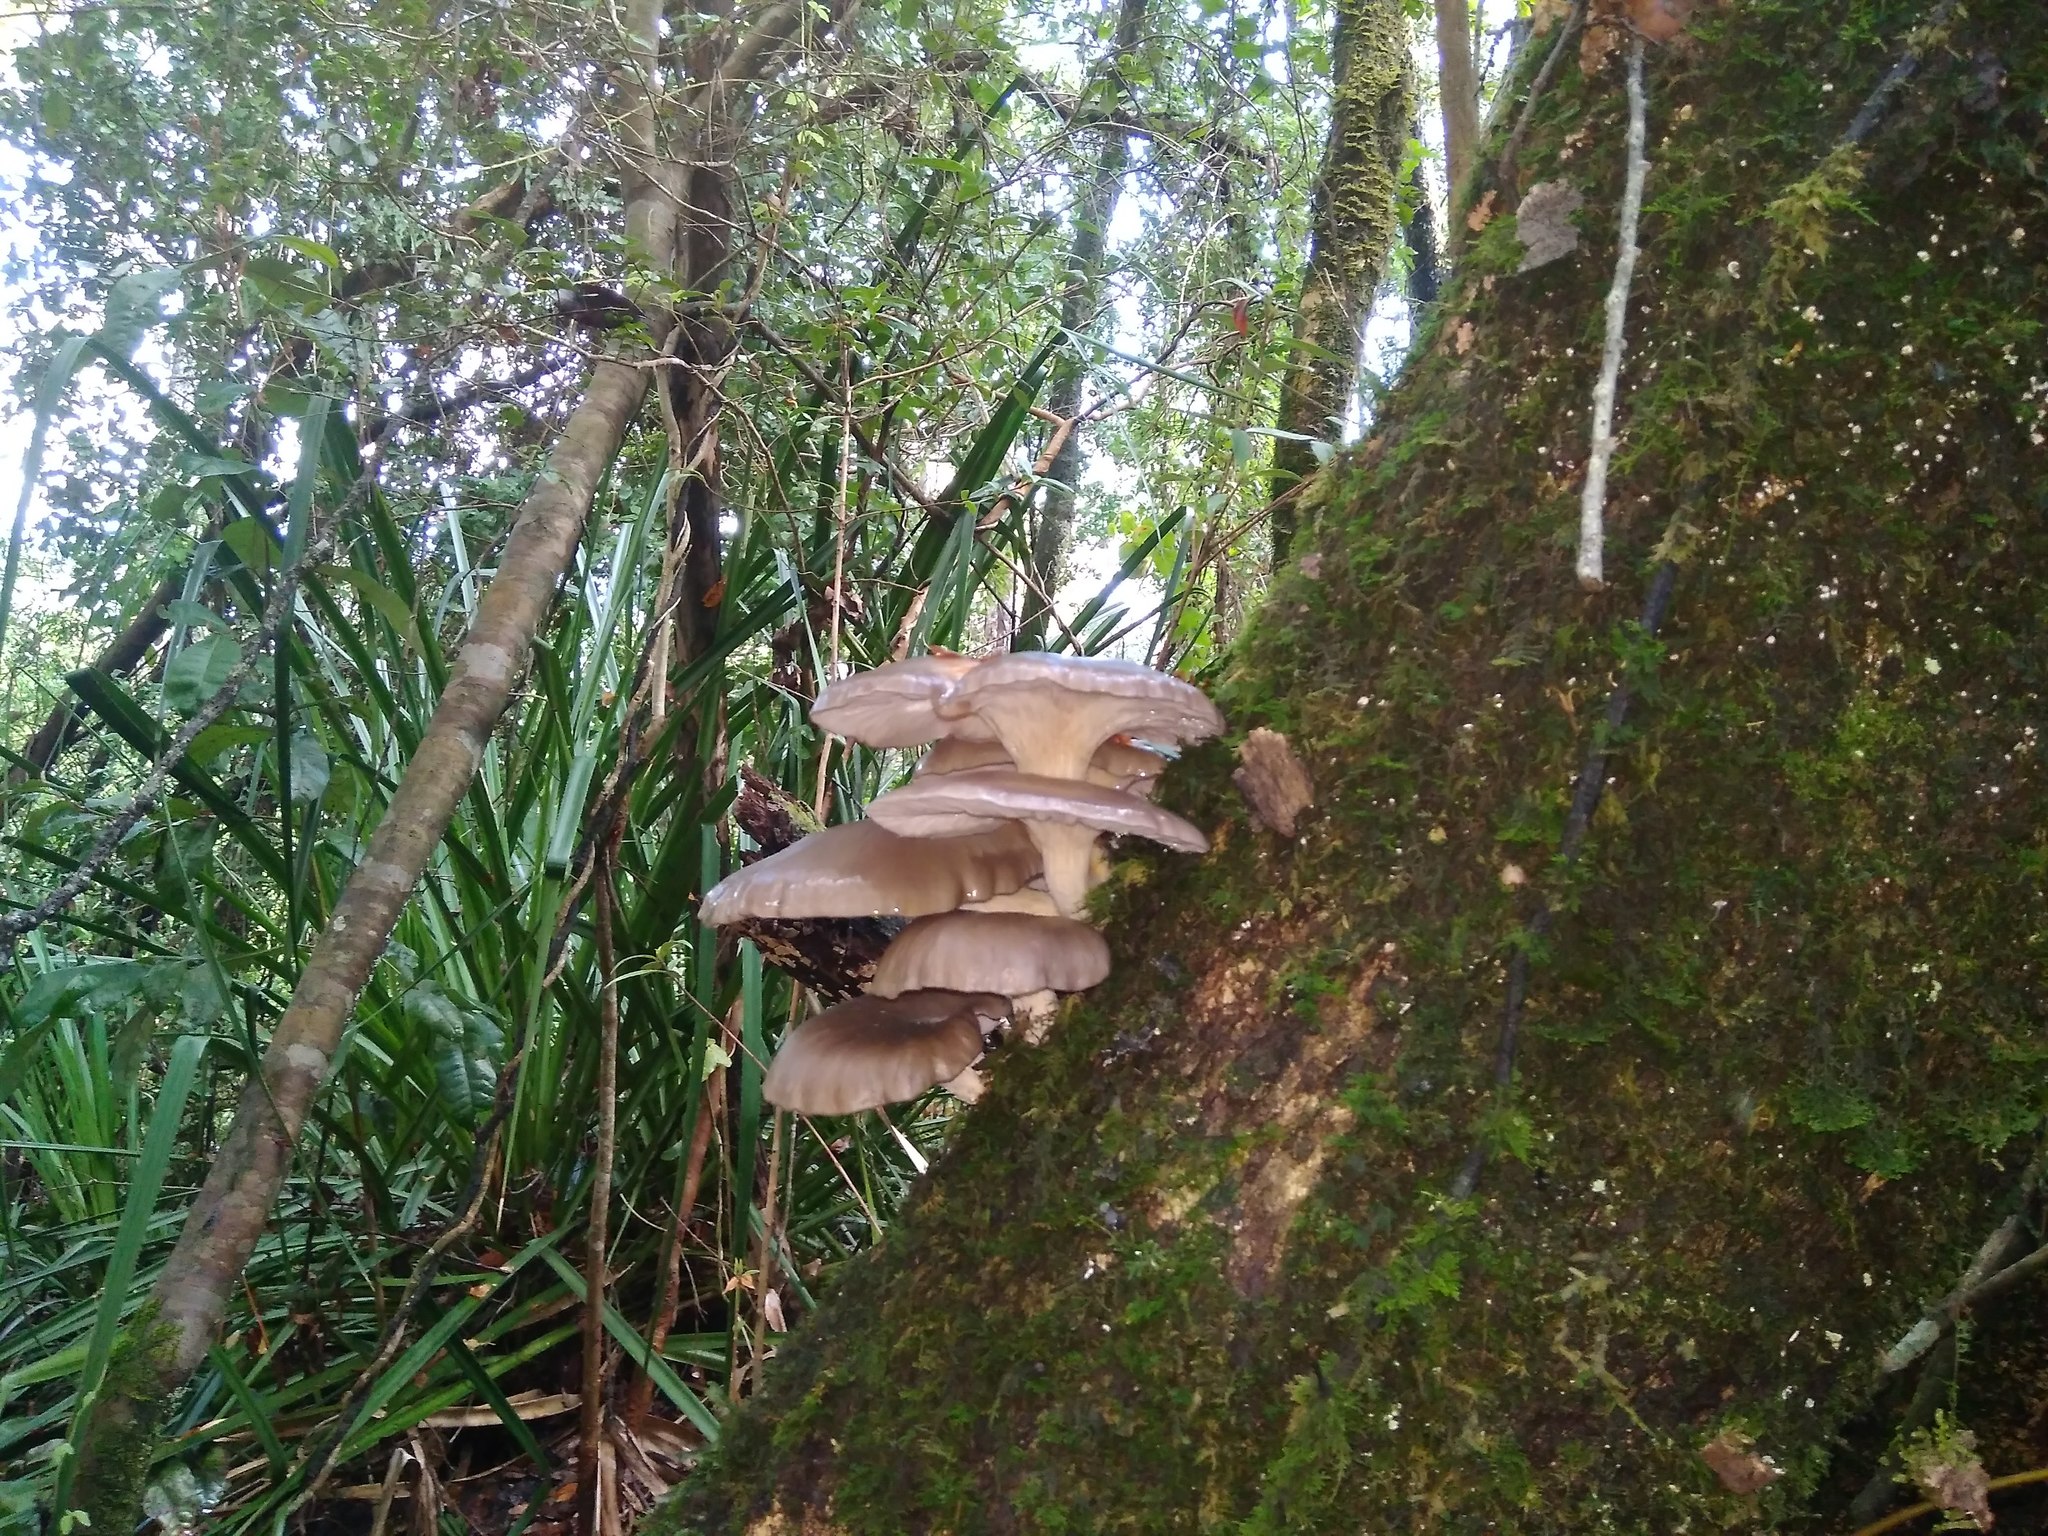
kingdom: Fungi
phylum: Basidiomycota
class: Agaricomycetes
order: Agaricales
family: Pleurotaceae
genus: Pleurotus
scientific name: Pleurotus ostreatus
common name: Oyster mushroom
